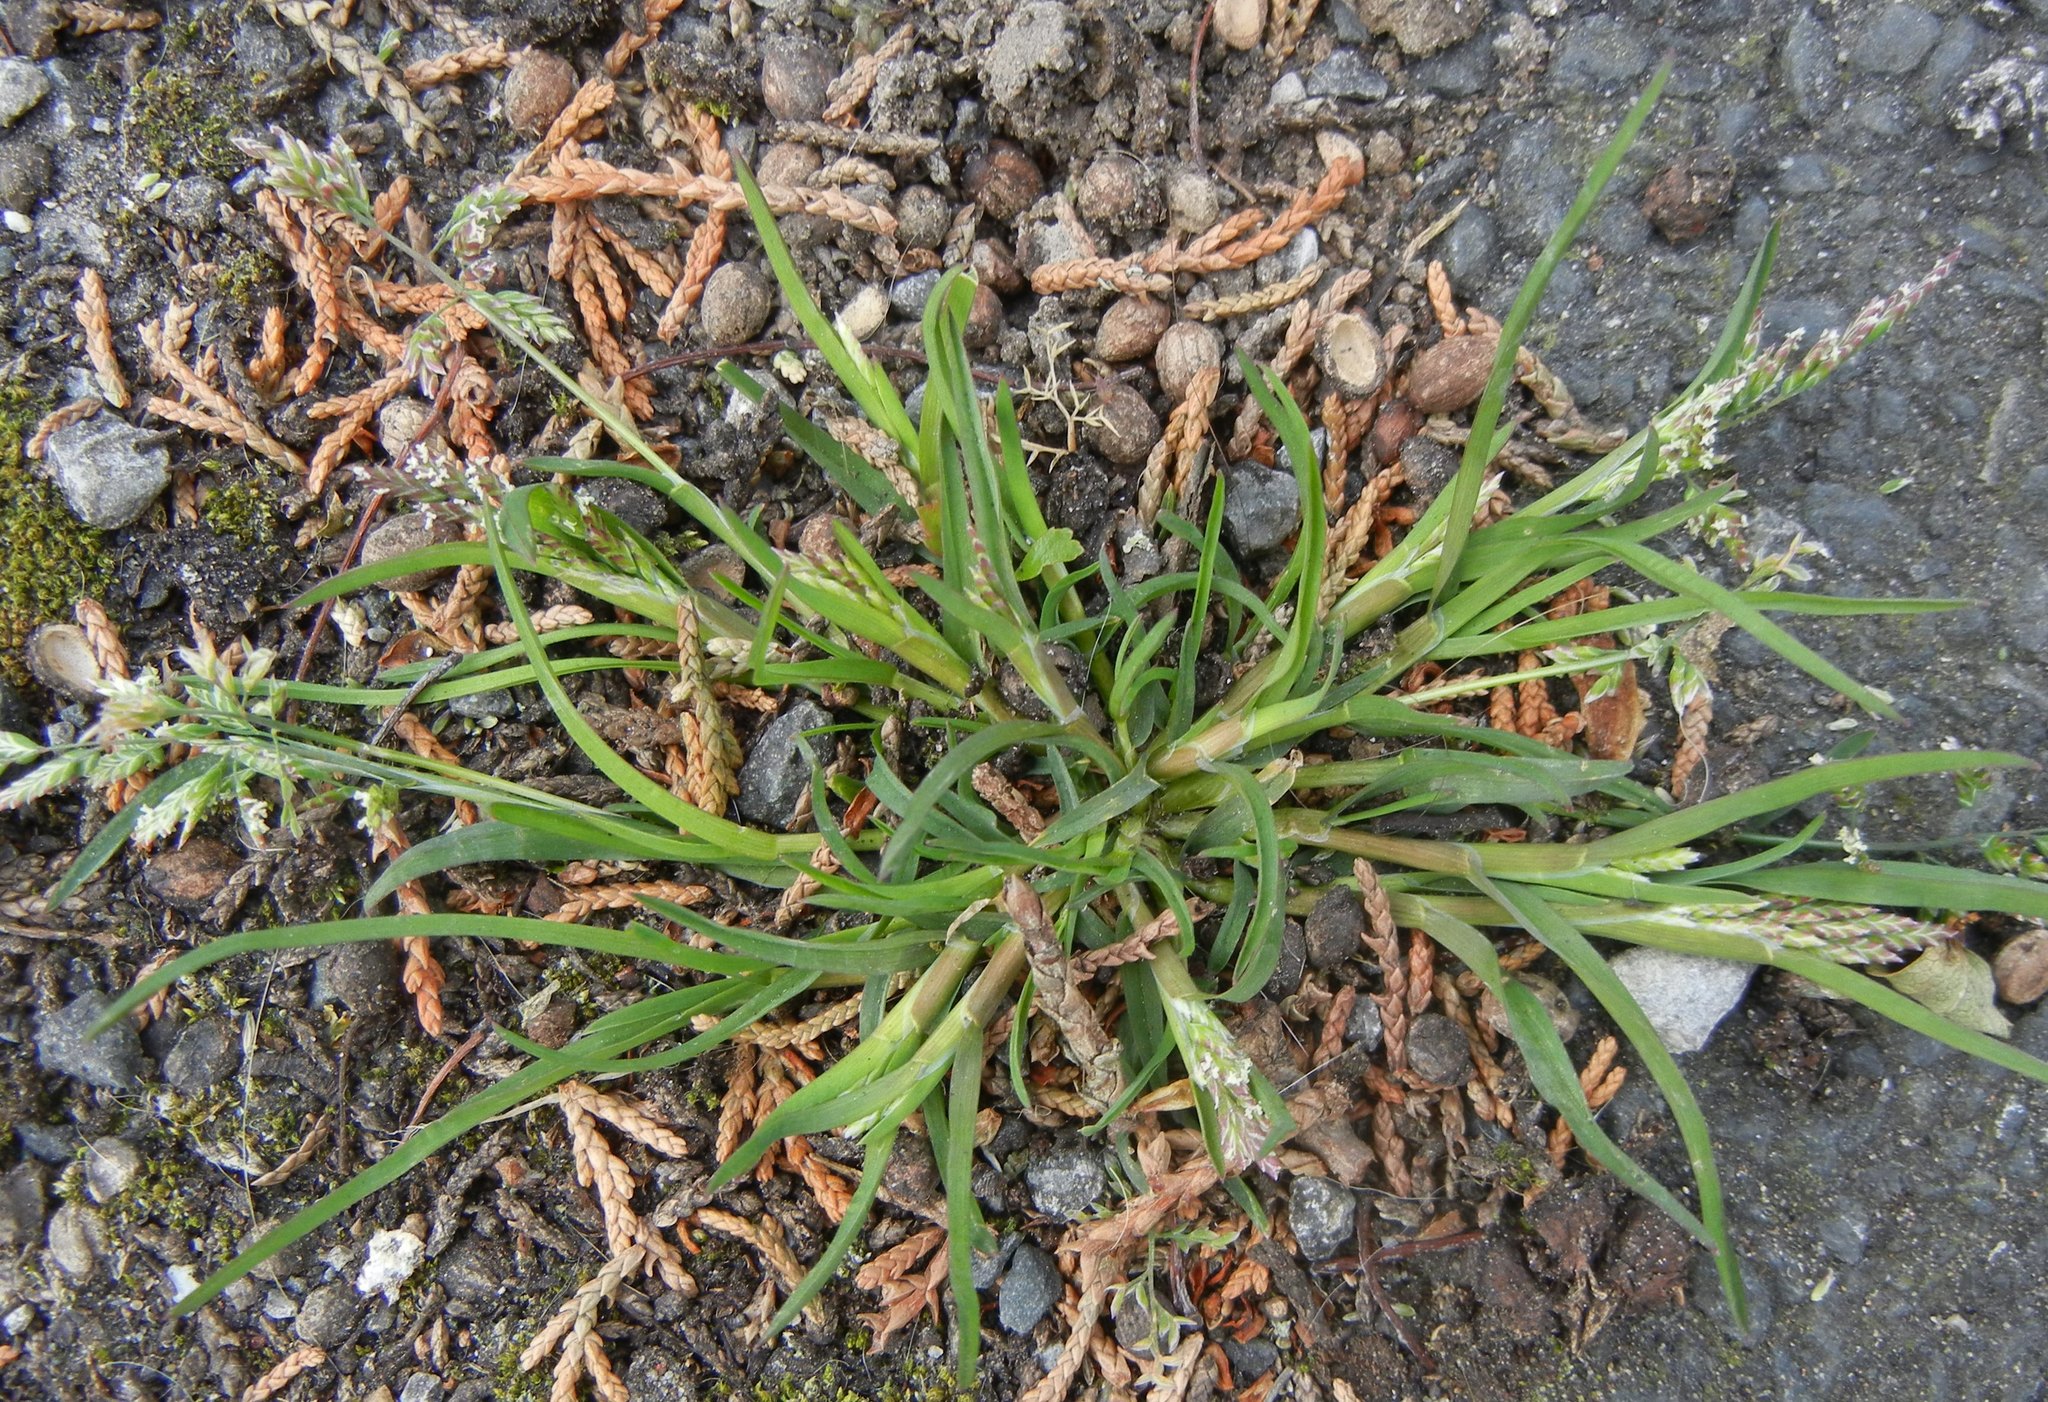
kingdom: Plantae
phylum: Tracheophyta
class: Liliopsida
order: Poales
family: Poaceae
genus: Poa
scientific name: Poa annua
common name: Annual bluegrass
